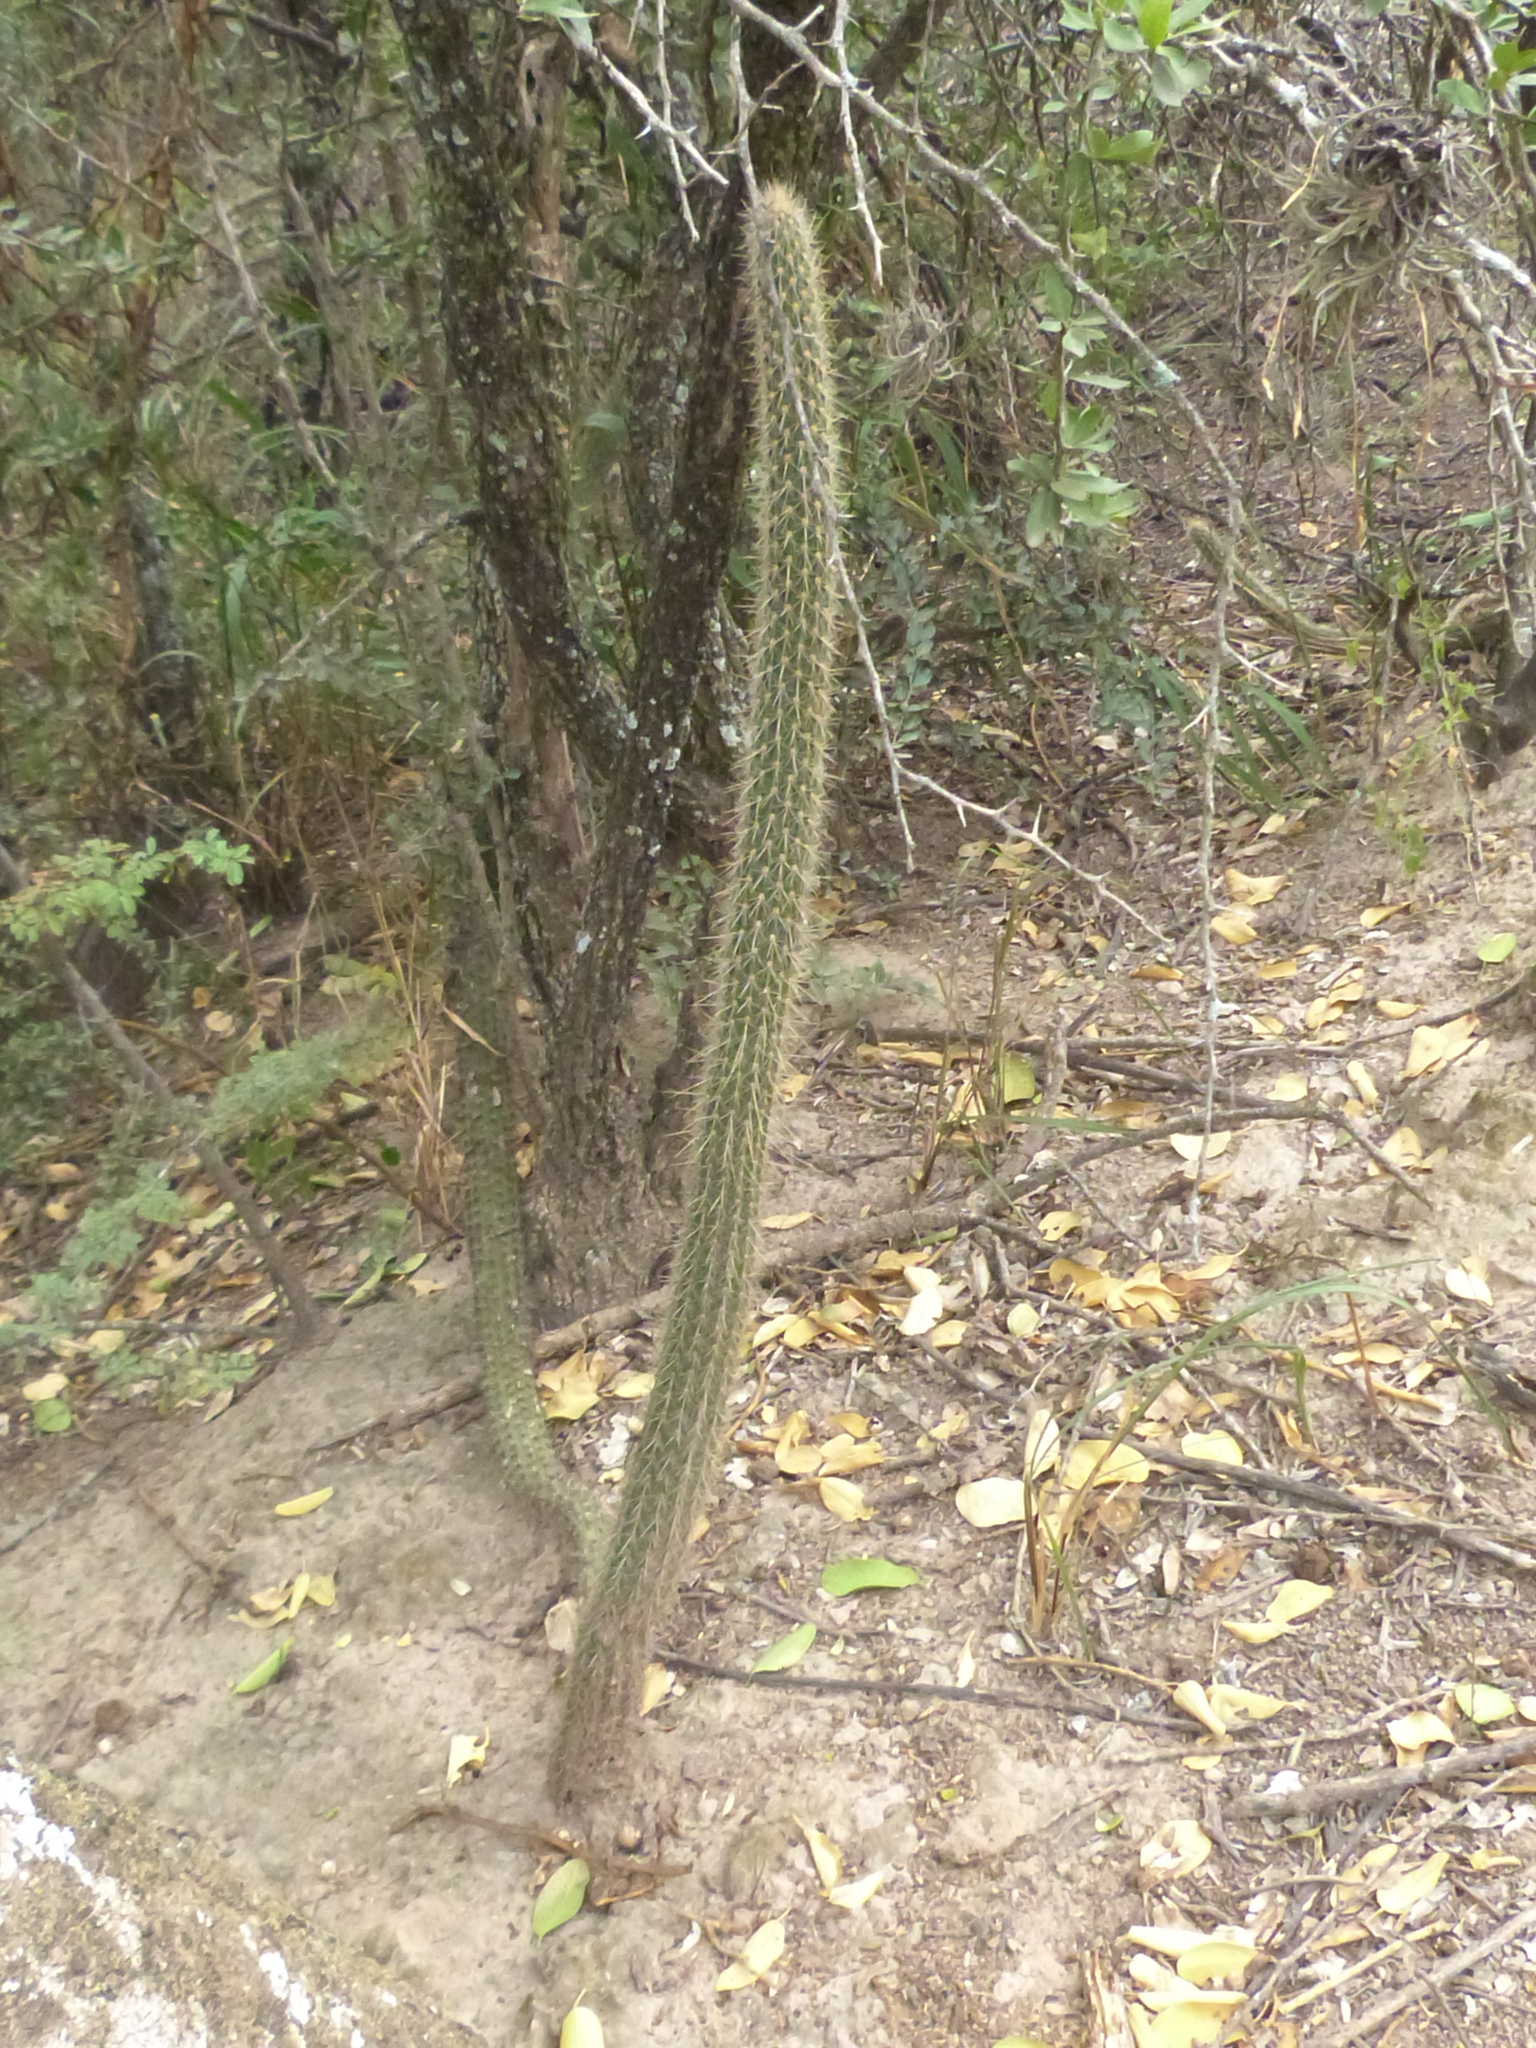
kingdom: Plantae
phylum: Tracheophyta
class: Magnoliopsida
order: Caryophyllales
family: Cactaceae
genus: Cleistocactus
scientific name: Cleistocactus baumannii
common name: Scarlet-bugler
